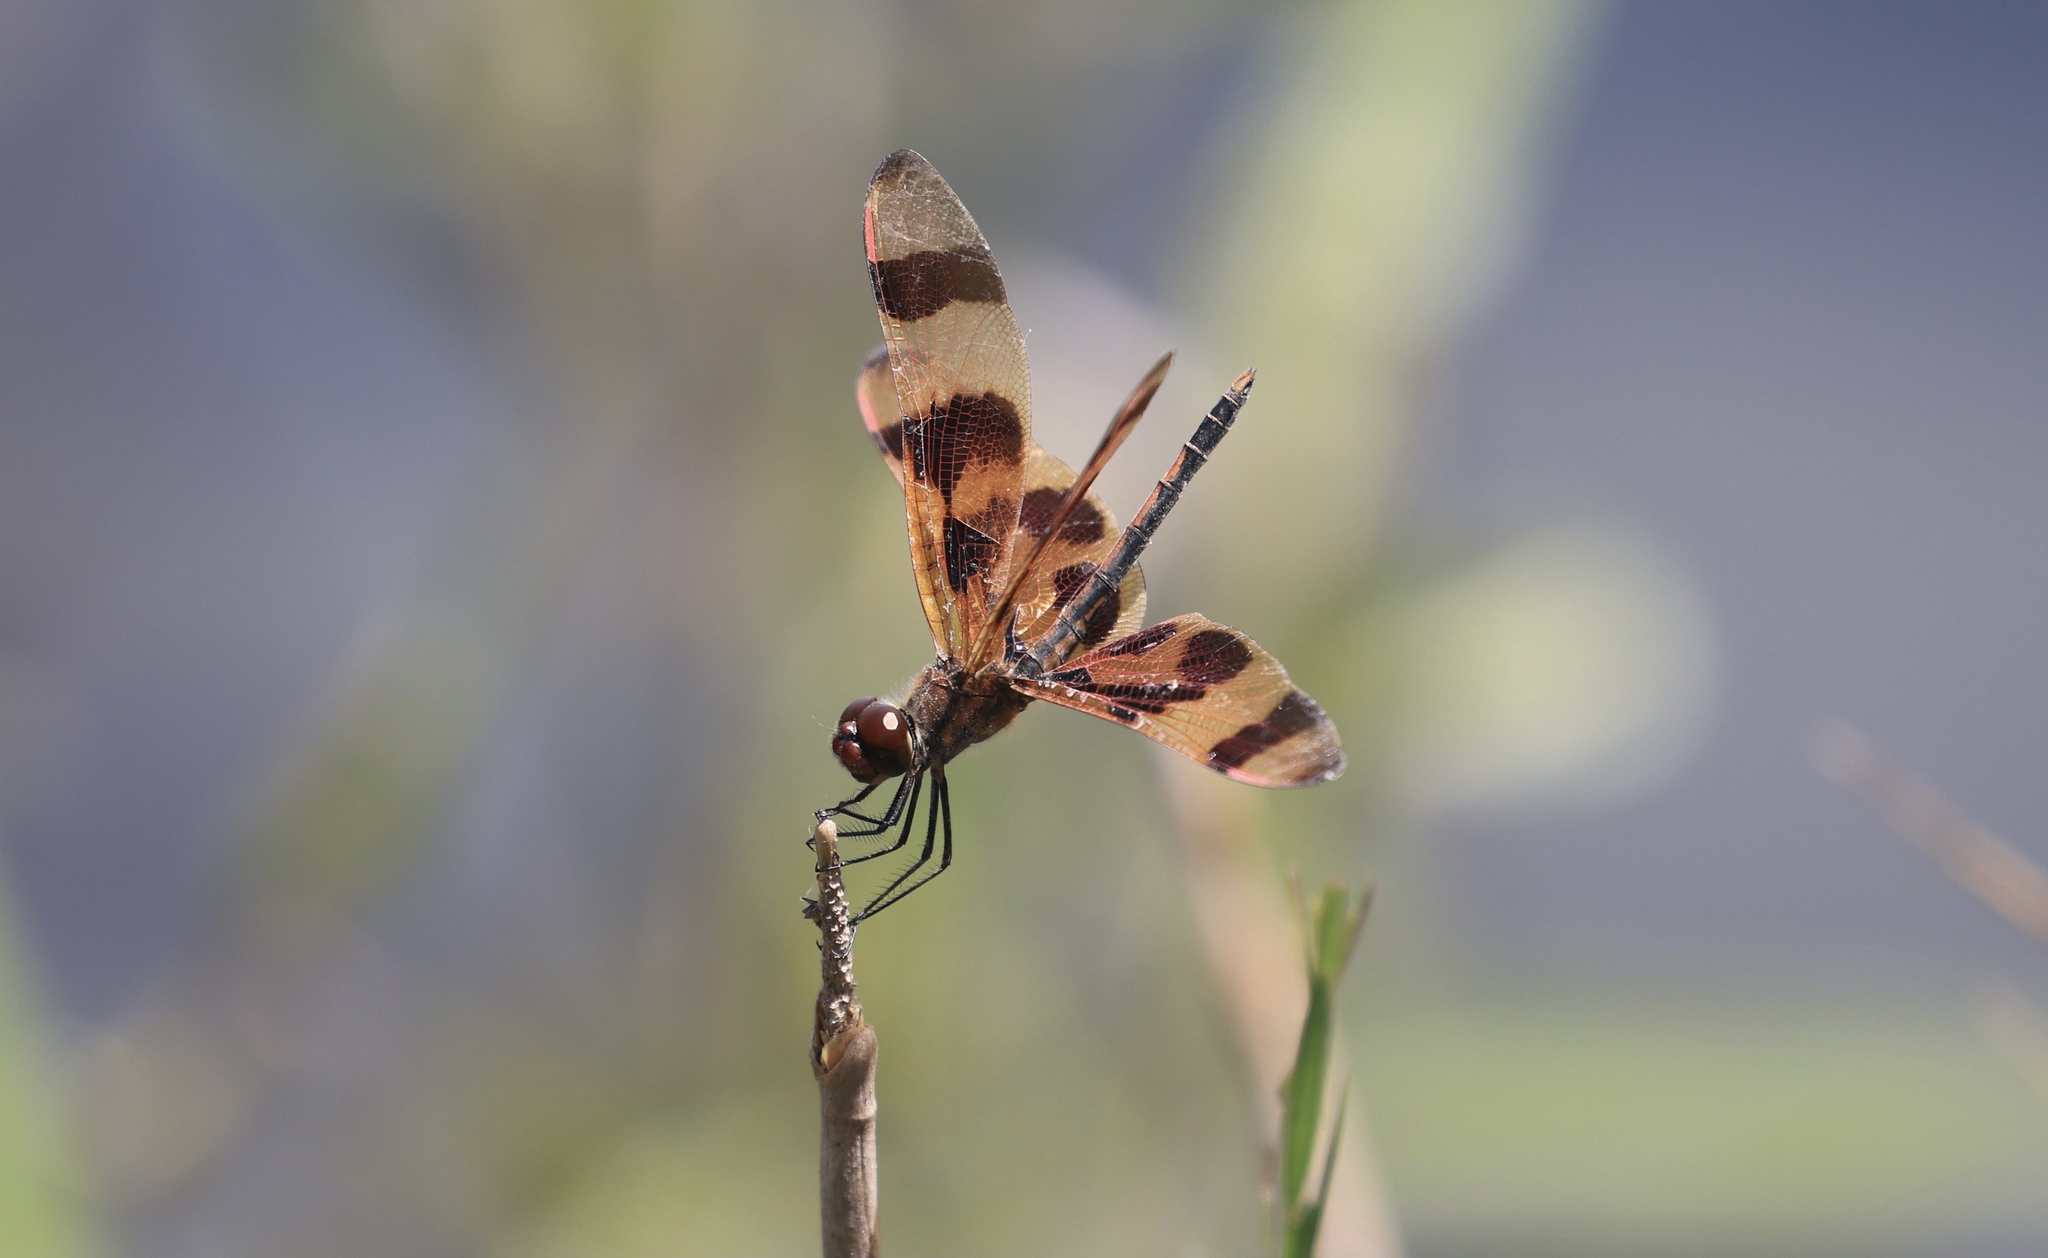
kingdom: Animalia
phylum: Arthropoda
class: Insecta
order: Odonata
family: Libellulidae
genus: Celithemis
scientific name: Celithemis eponina
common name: Halloween pennant
